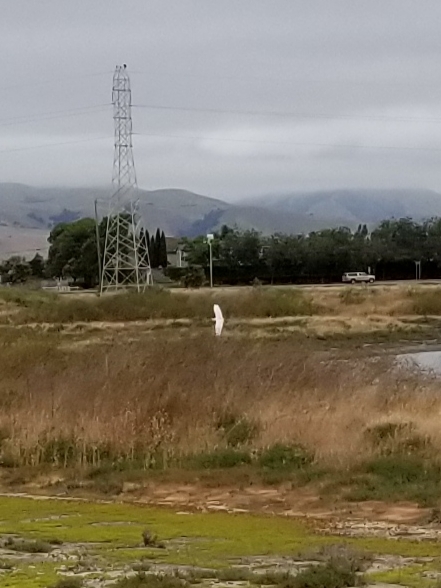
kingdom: Animalia
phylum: Chordata
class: Aves
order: Pelecaniformes
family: Ardeidae
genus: Ardea
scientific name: Ardea alba
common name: Great egret
